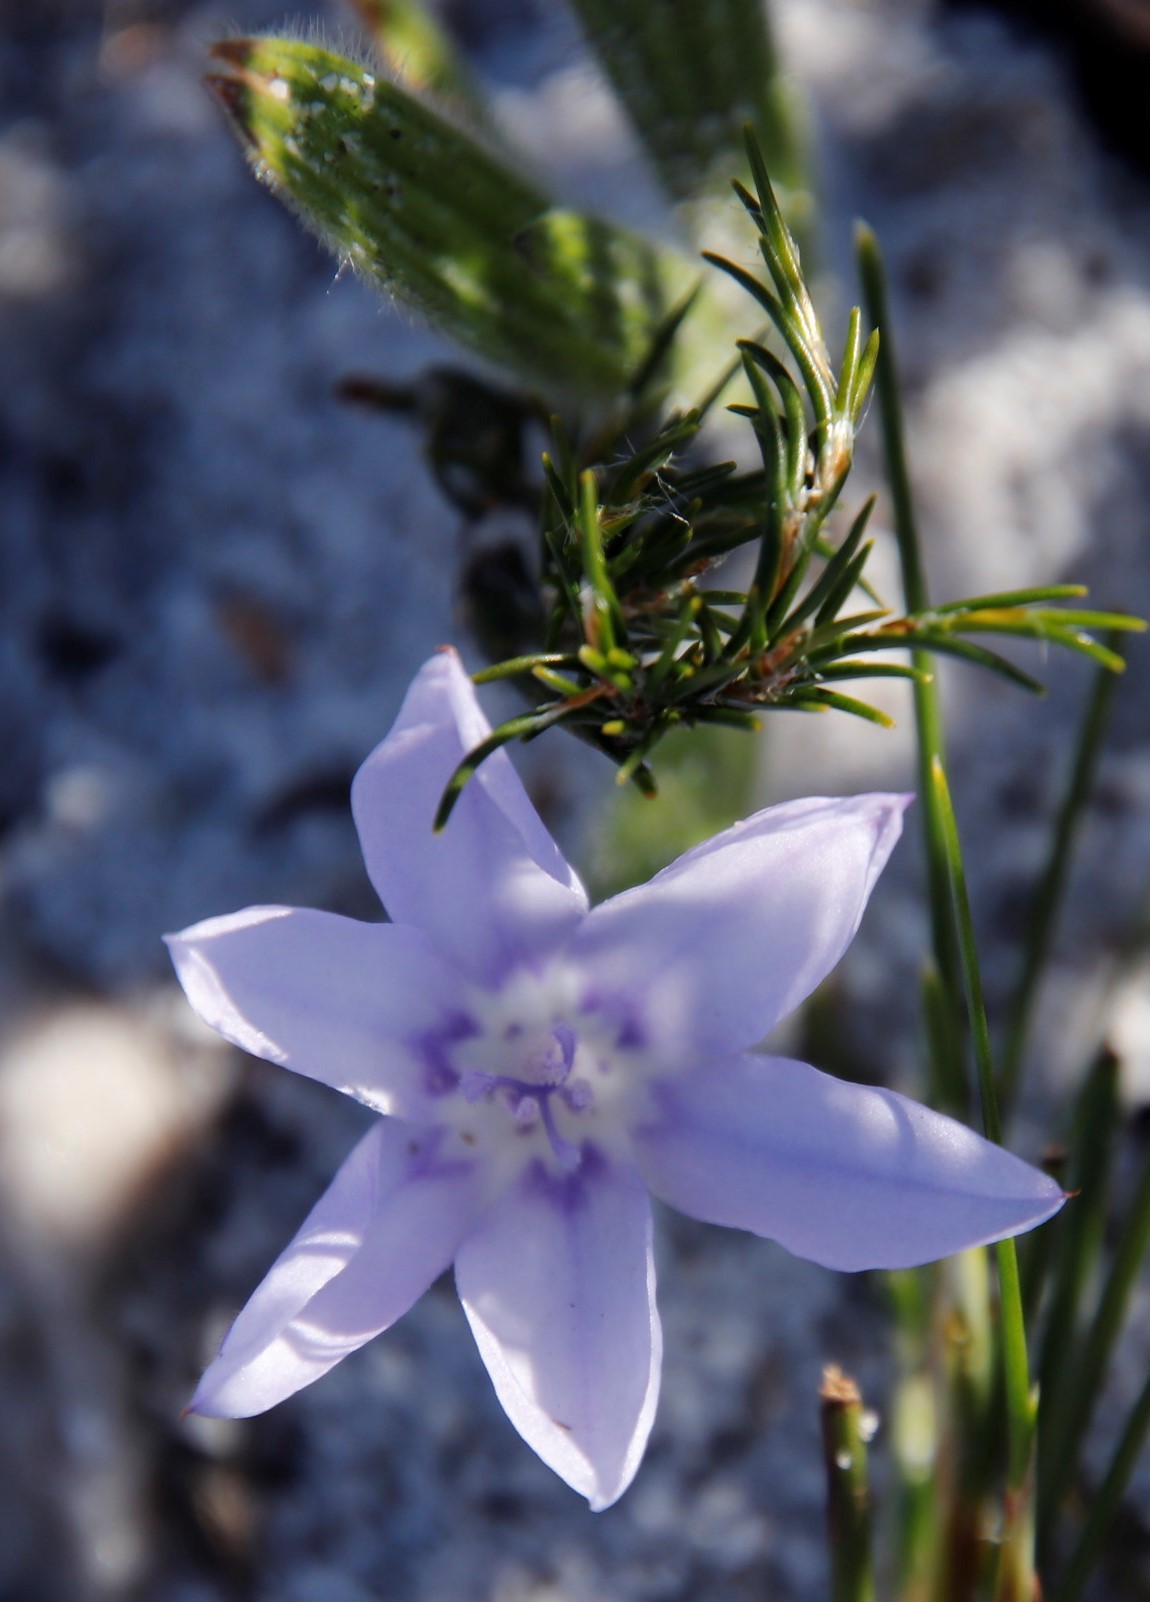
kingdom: Plantae
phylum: Tracheophyta
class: Liliopsida
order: Asparagales
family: Iridaceae
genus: Babiana
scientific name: Babiana villosula
